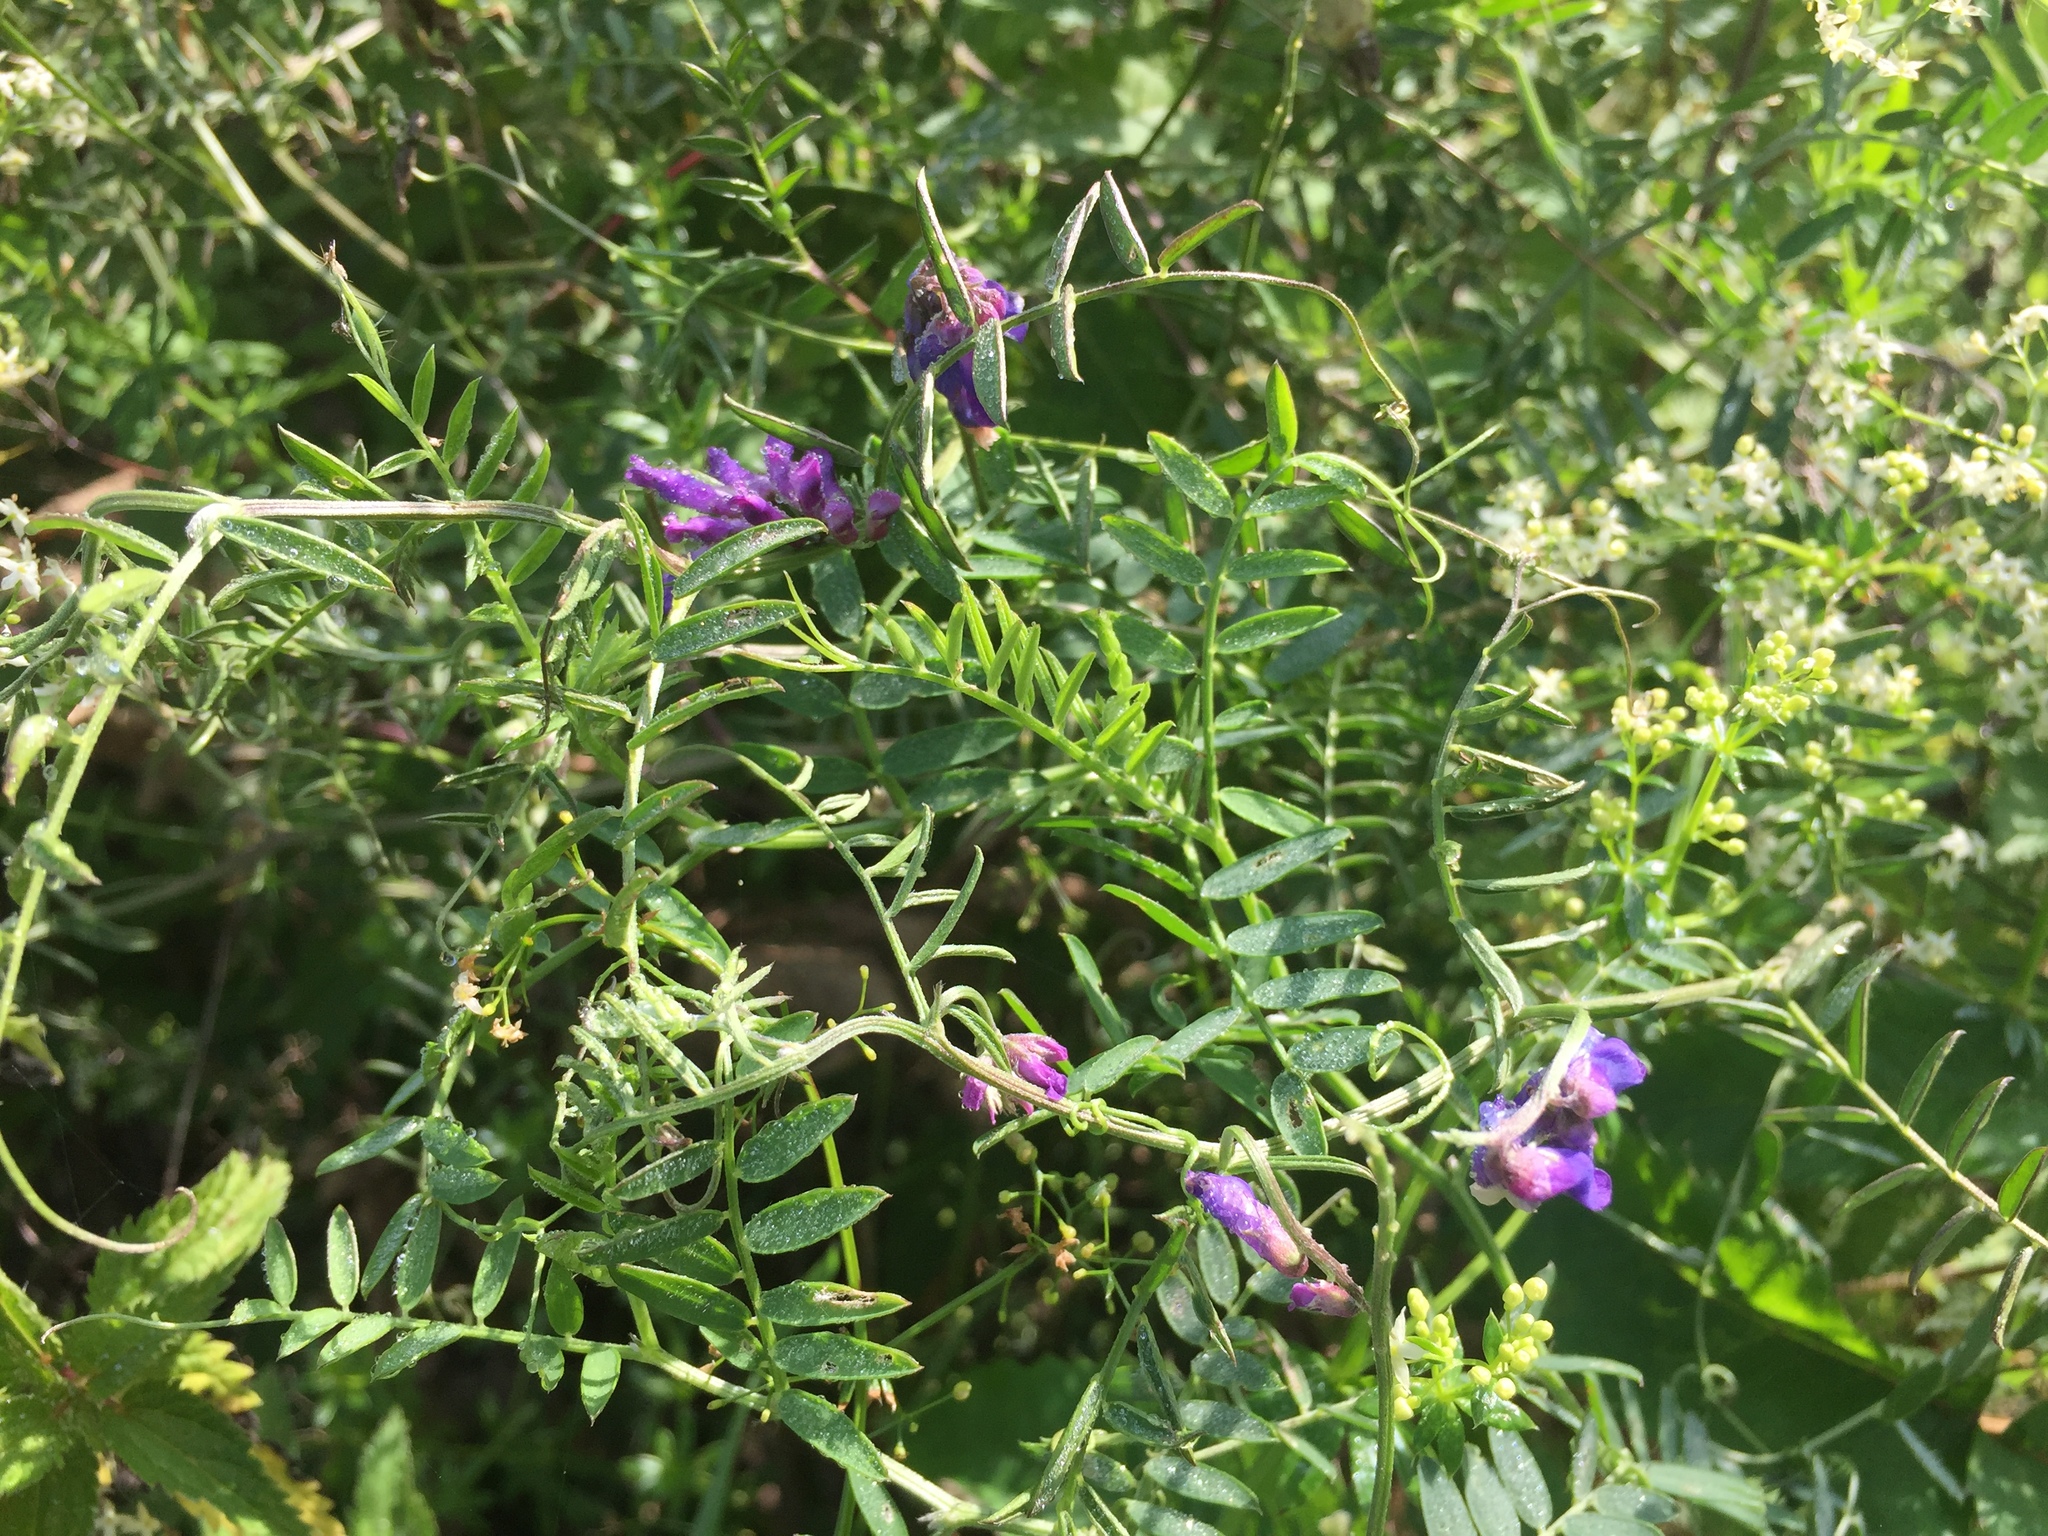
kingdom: Plantae
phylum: Tracheophyta
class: Magnoliopsida
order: Fabales
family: Fabaceae
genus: Vicia
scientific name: Vicia cracca
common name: Bird vetch
